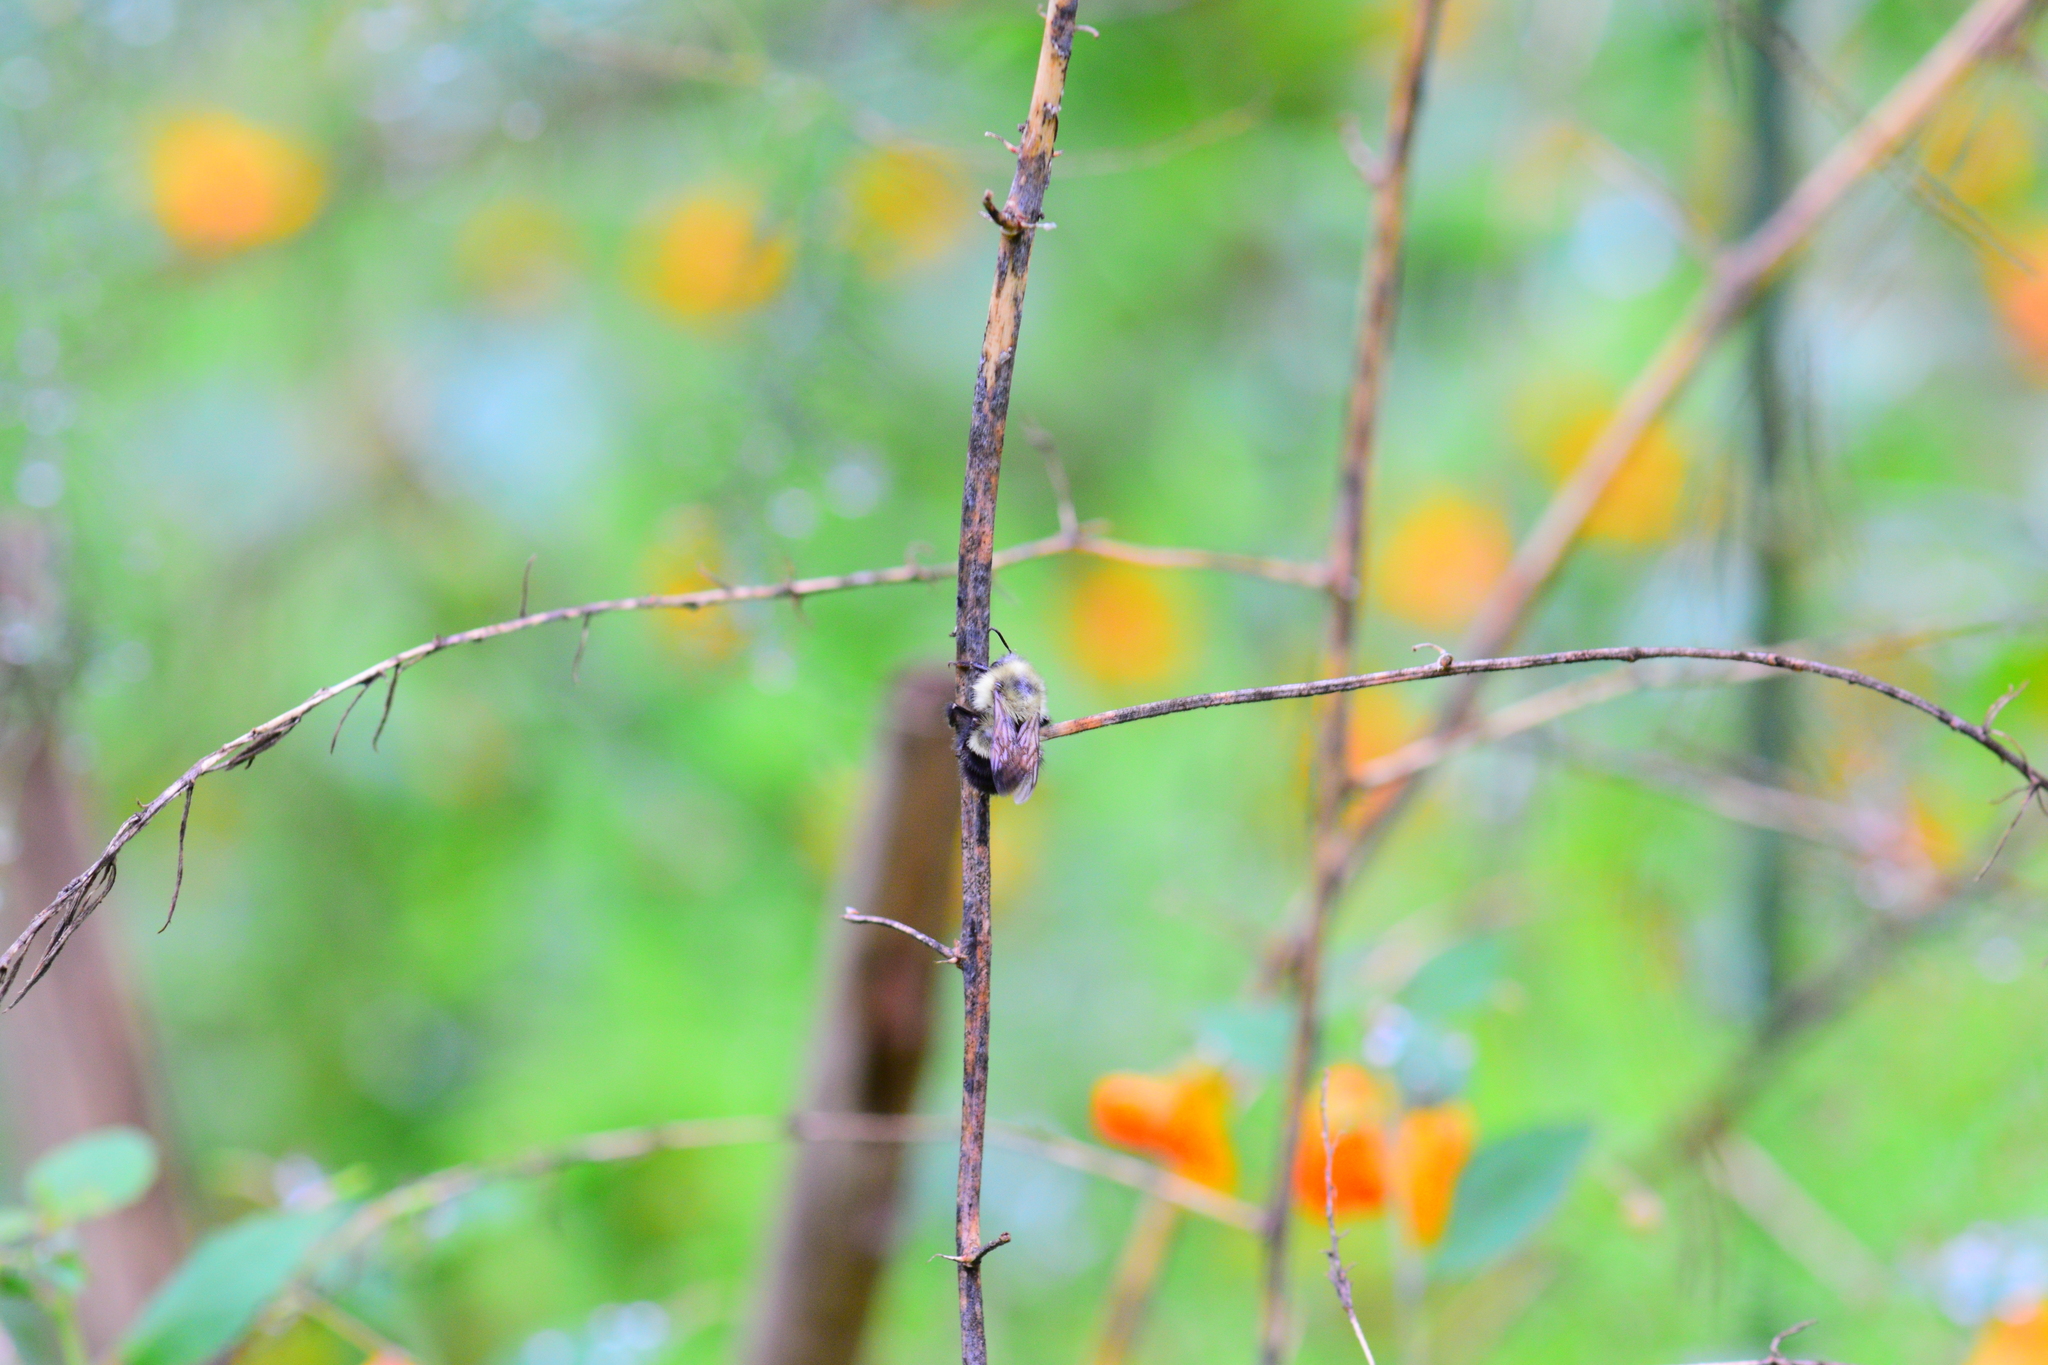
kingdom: Animalia
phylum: Arthropoda
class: Insecta
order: Hymenoptera
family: Apidae
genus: Pyrobombus
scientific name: Pyrobombus
